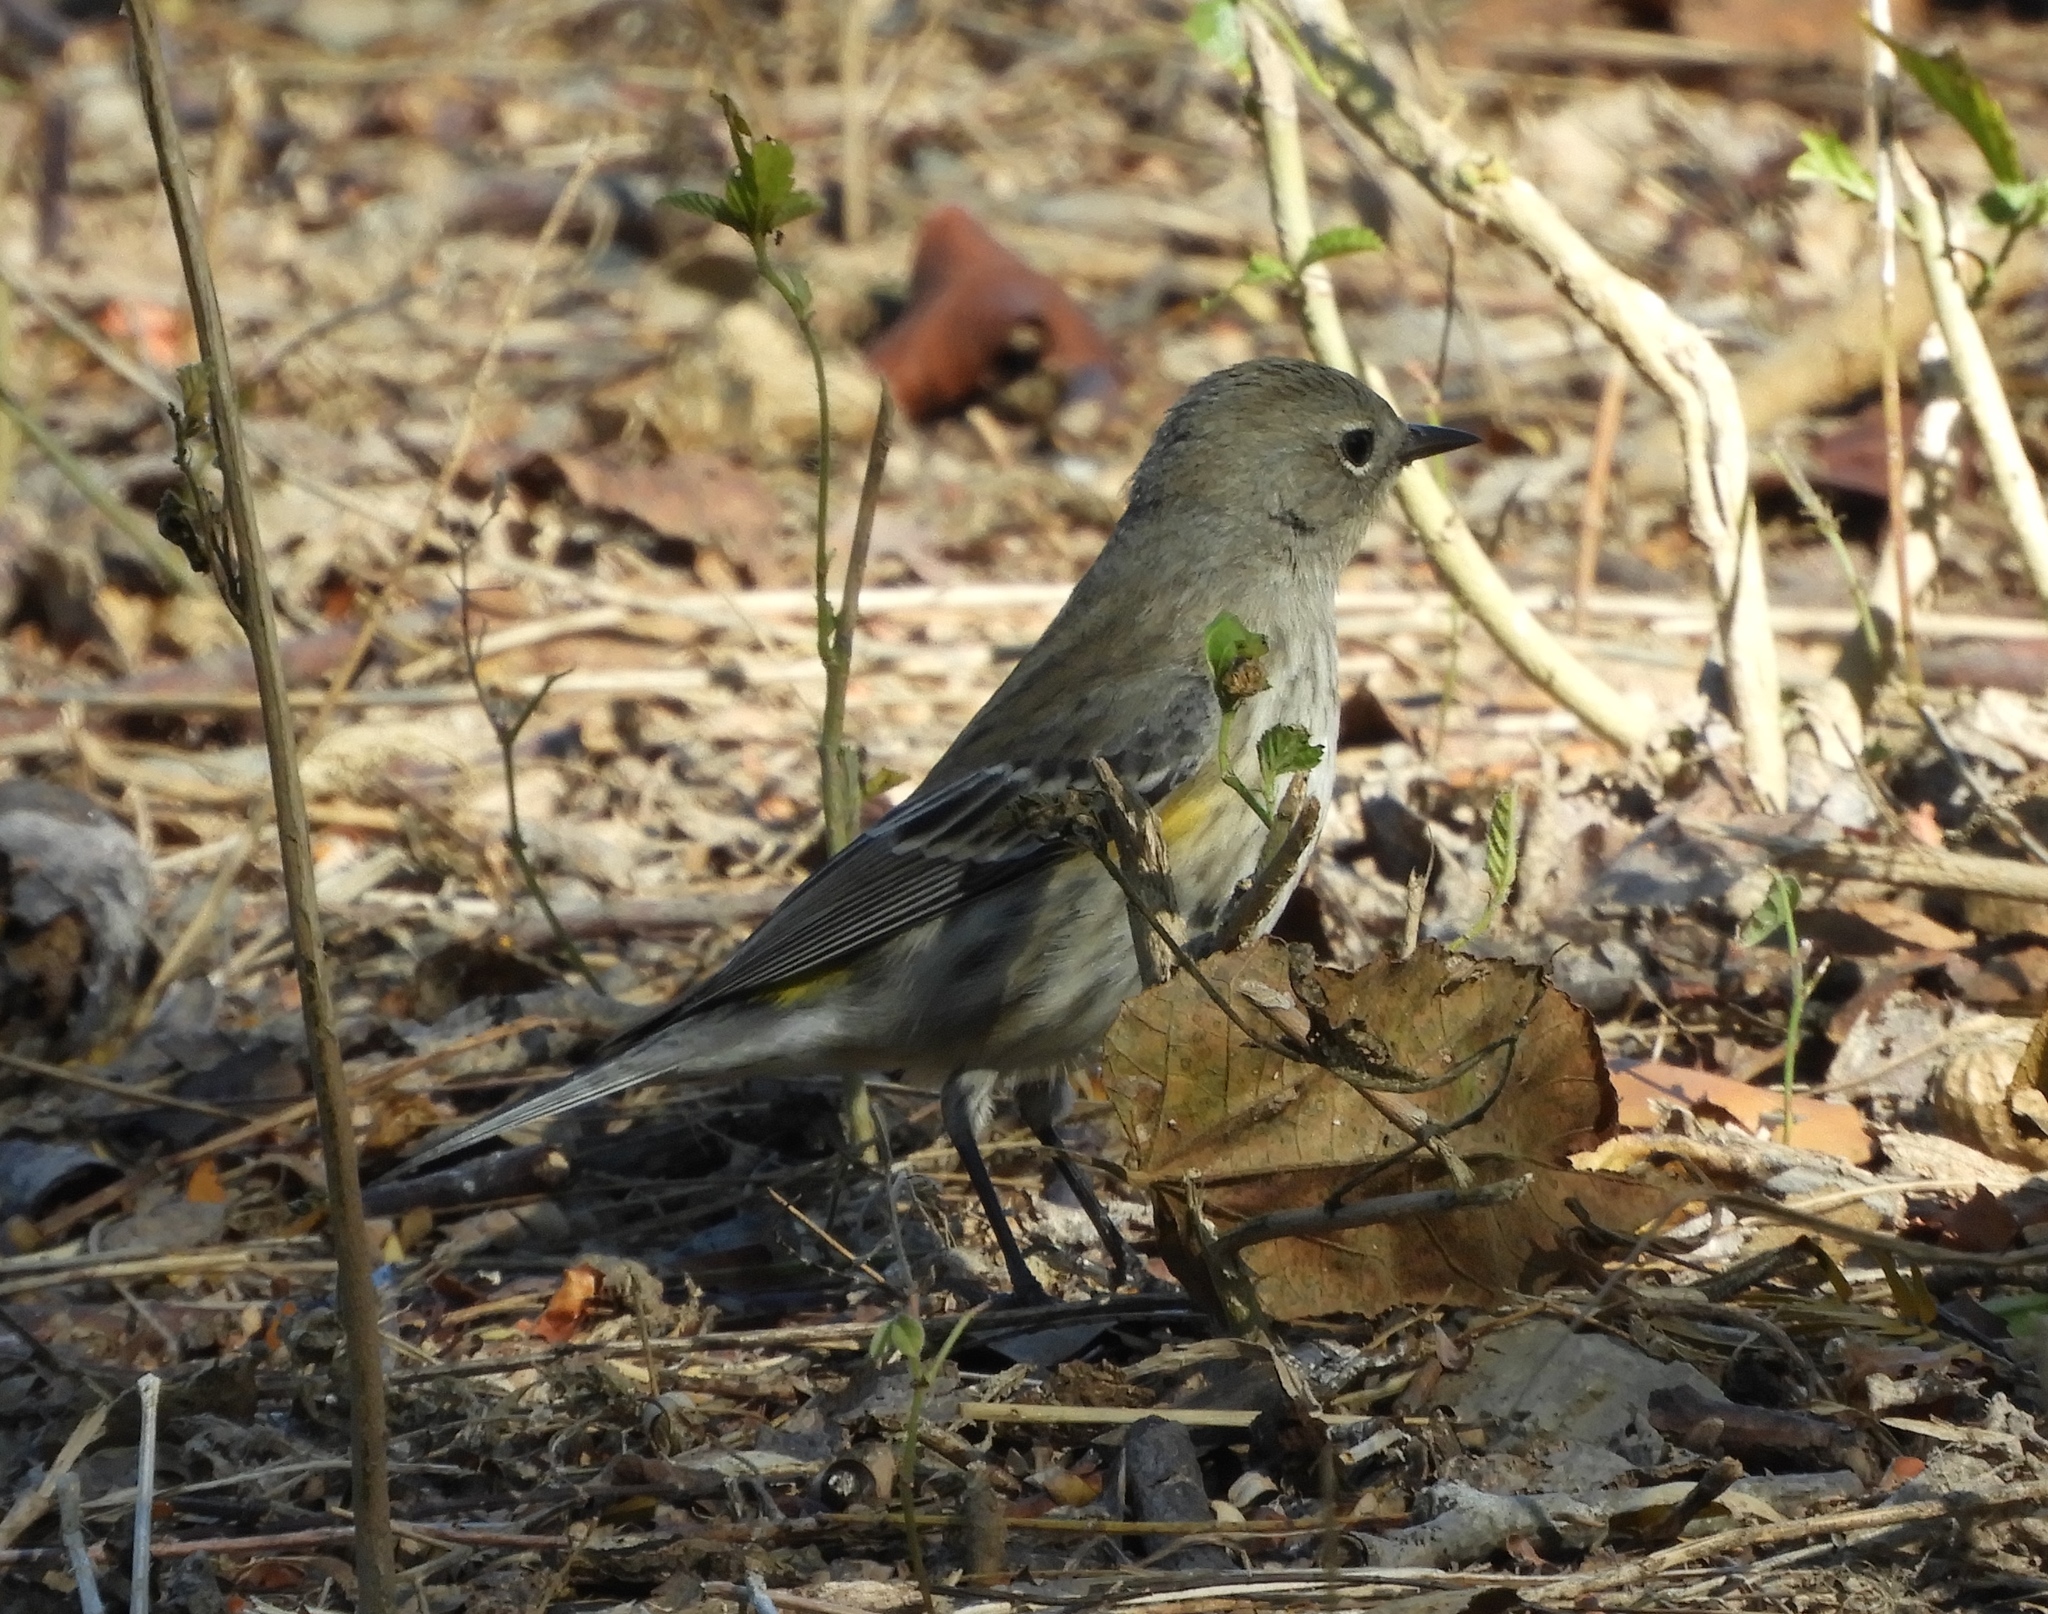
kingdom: Animalia
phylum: Chordata
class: Aves
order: Passeriformes
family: Parulidae
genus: Setophaga
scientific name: Setophaga coronata
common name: Myrtle warbler
